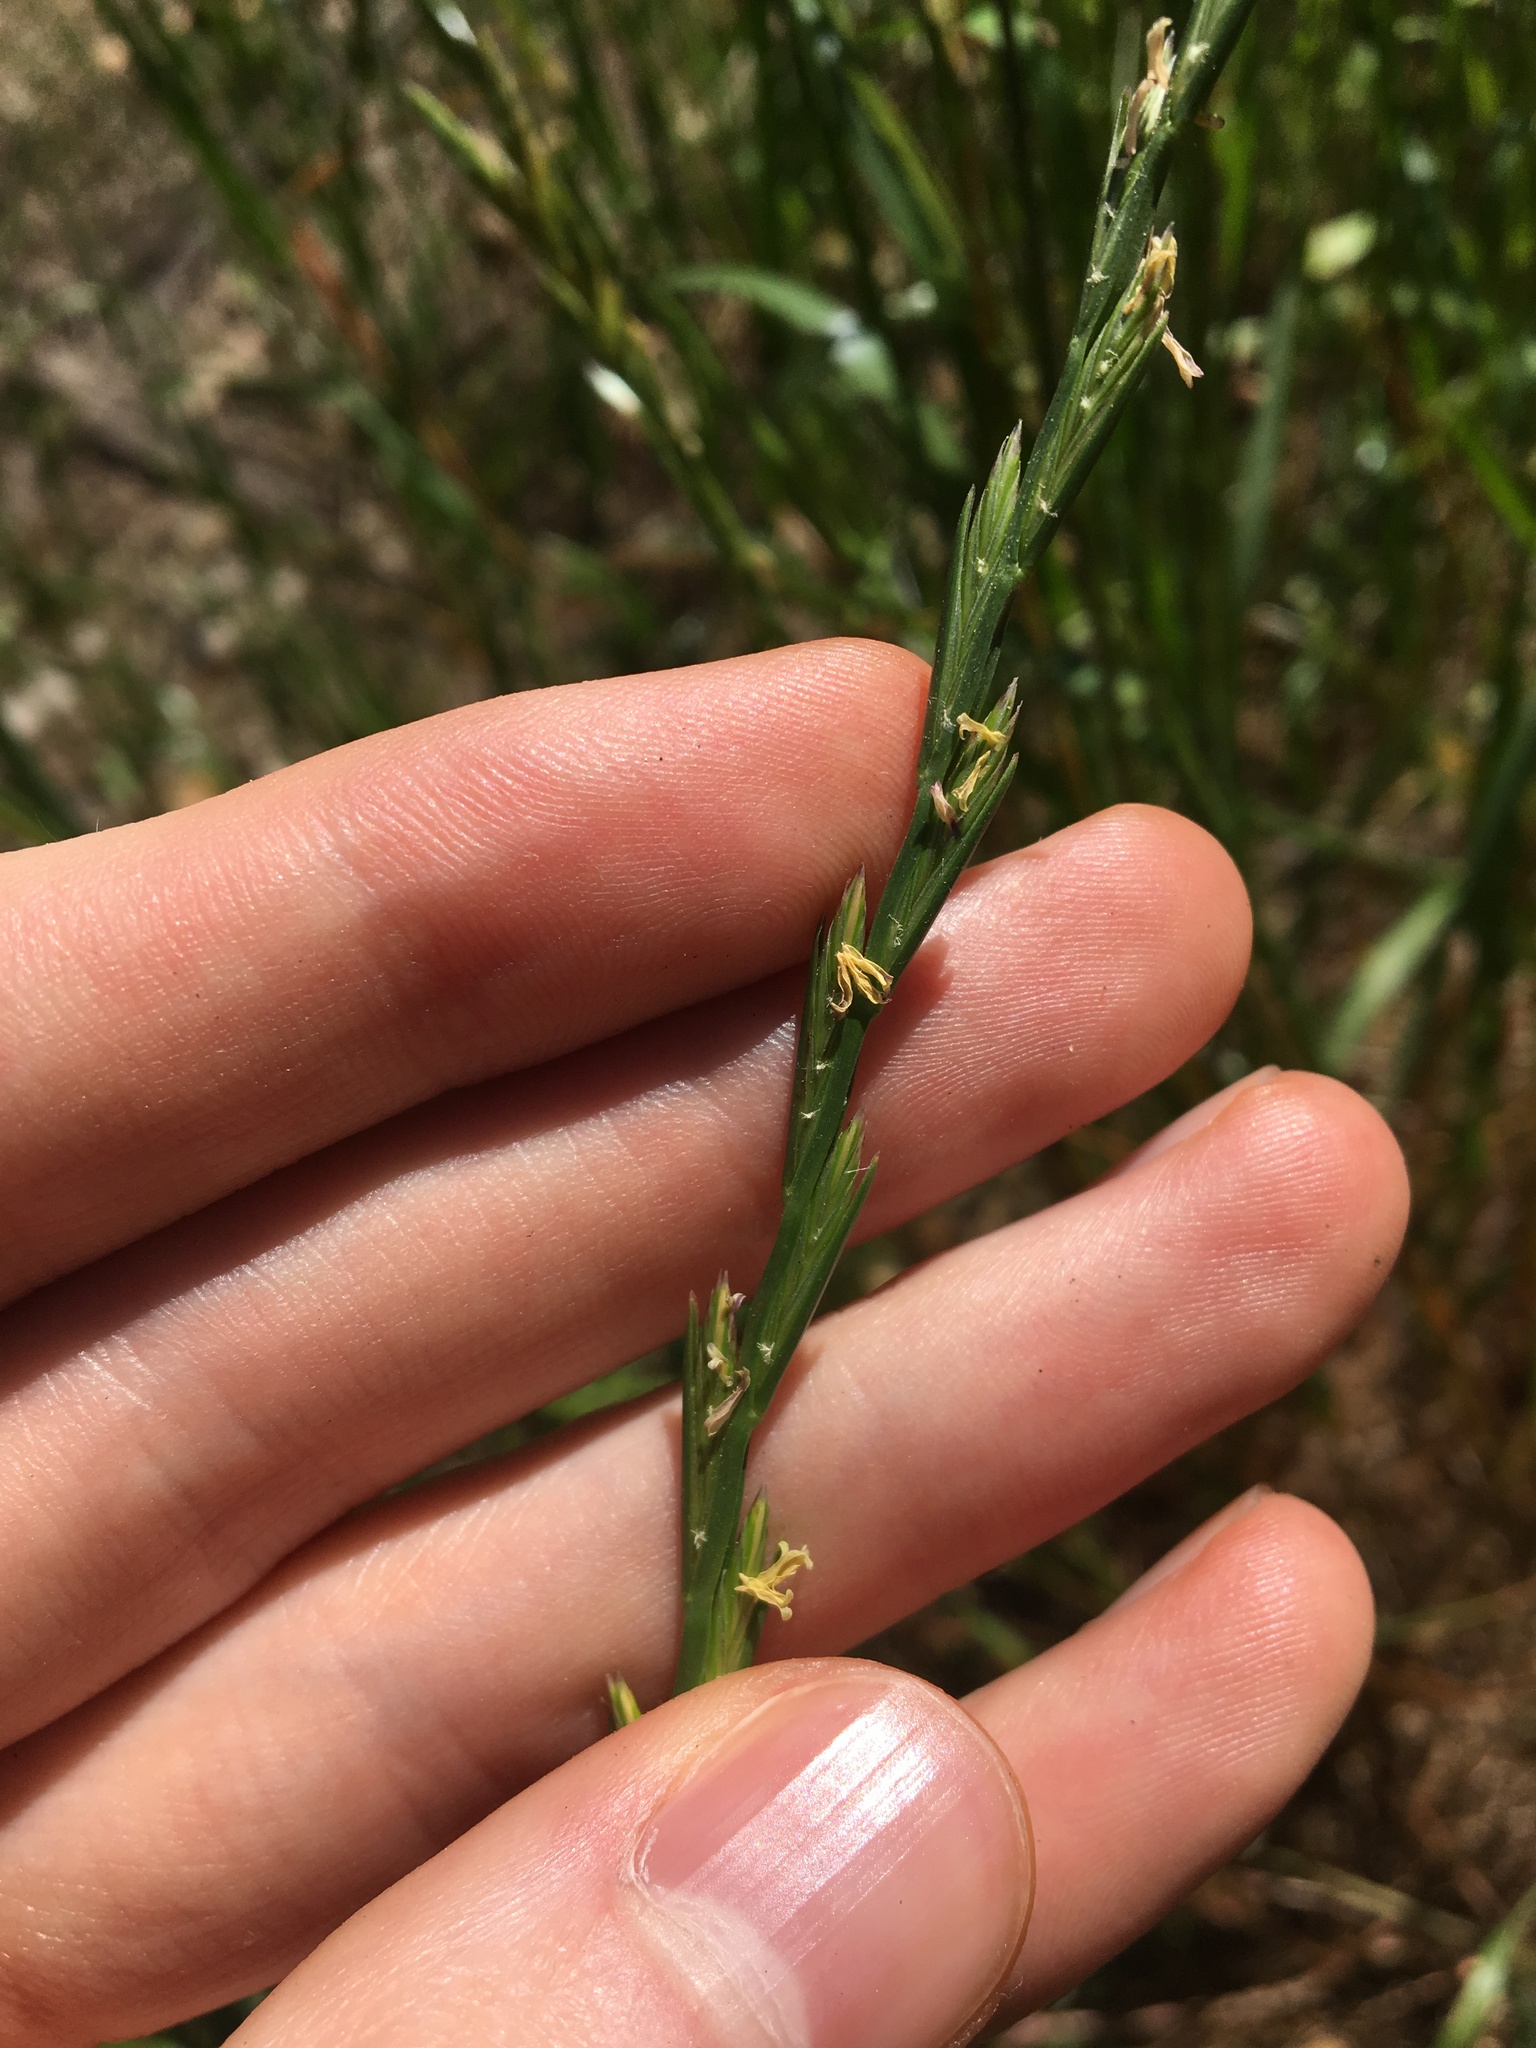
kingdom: Plantae
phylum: Tracheophyta
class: Liliopsida
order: Poales
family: Poaceae
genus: Lolium
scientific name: Lolium perenne
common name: Perennial ryegrass
